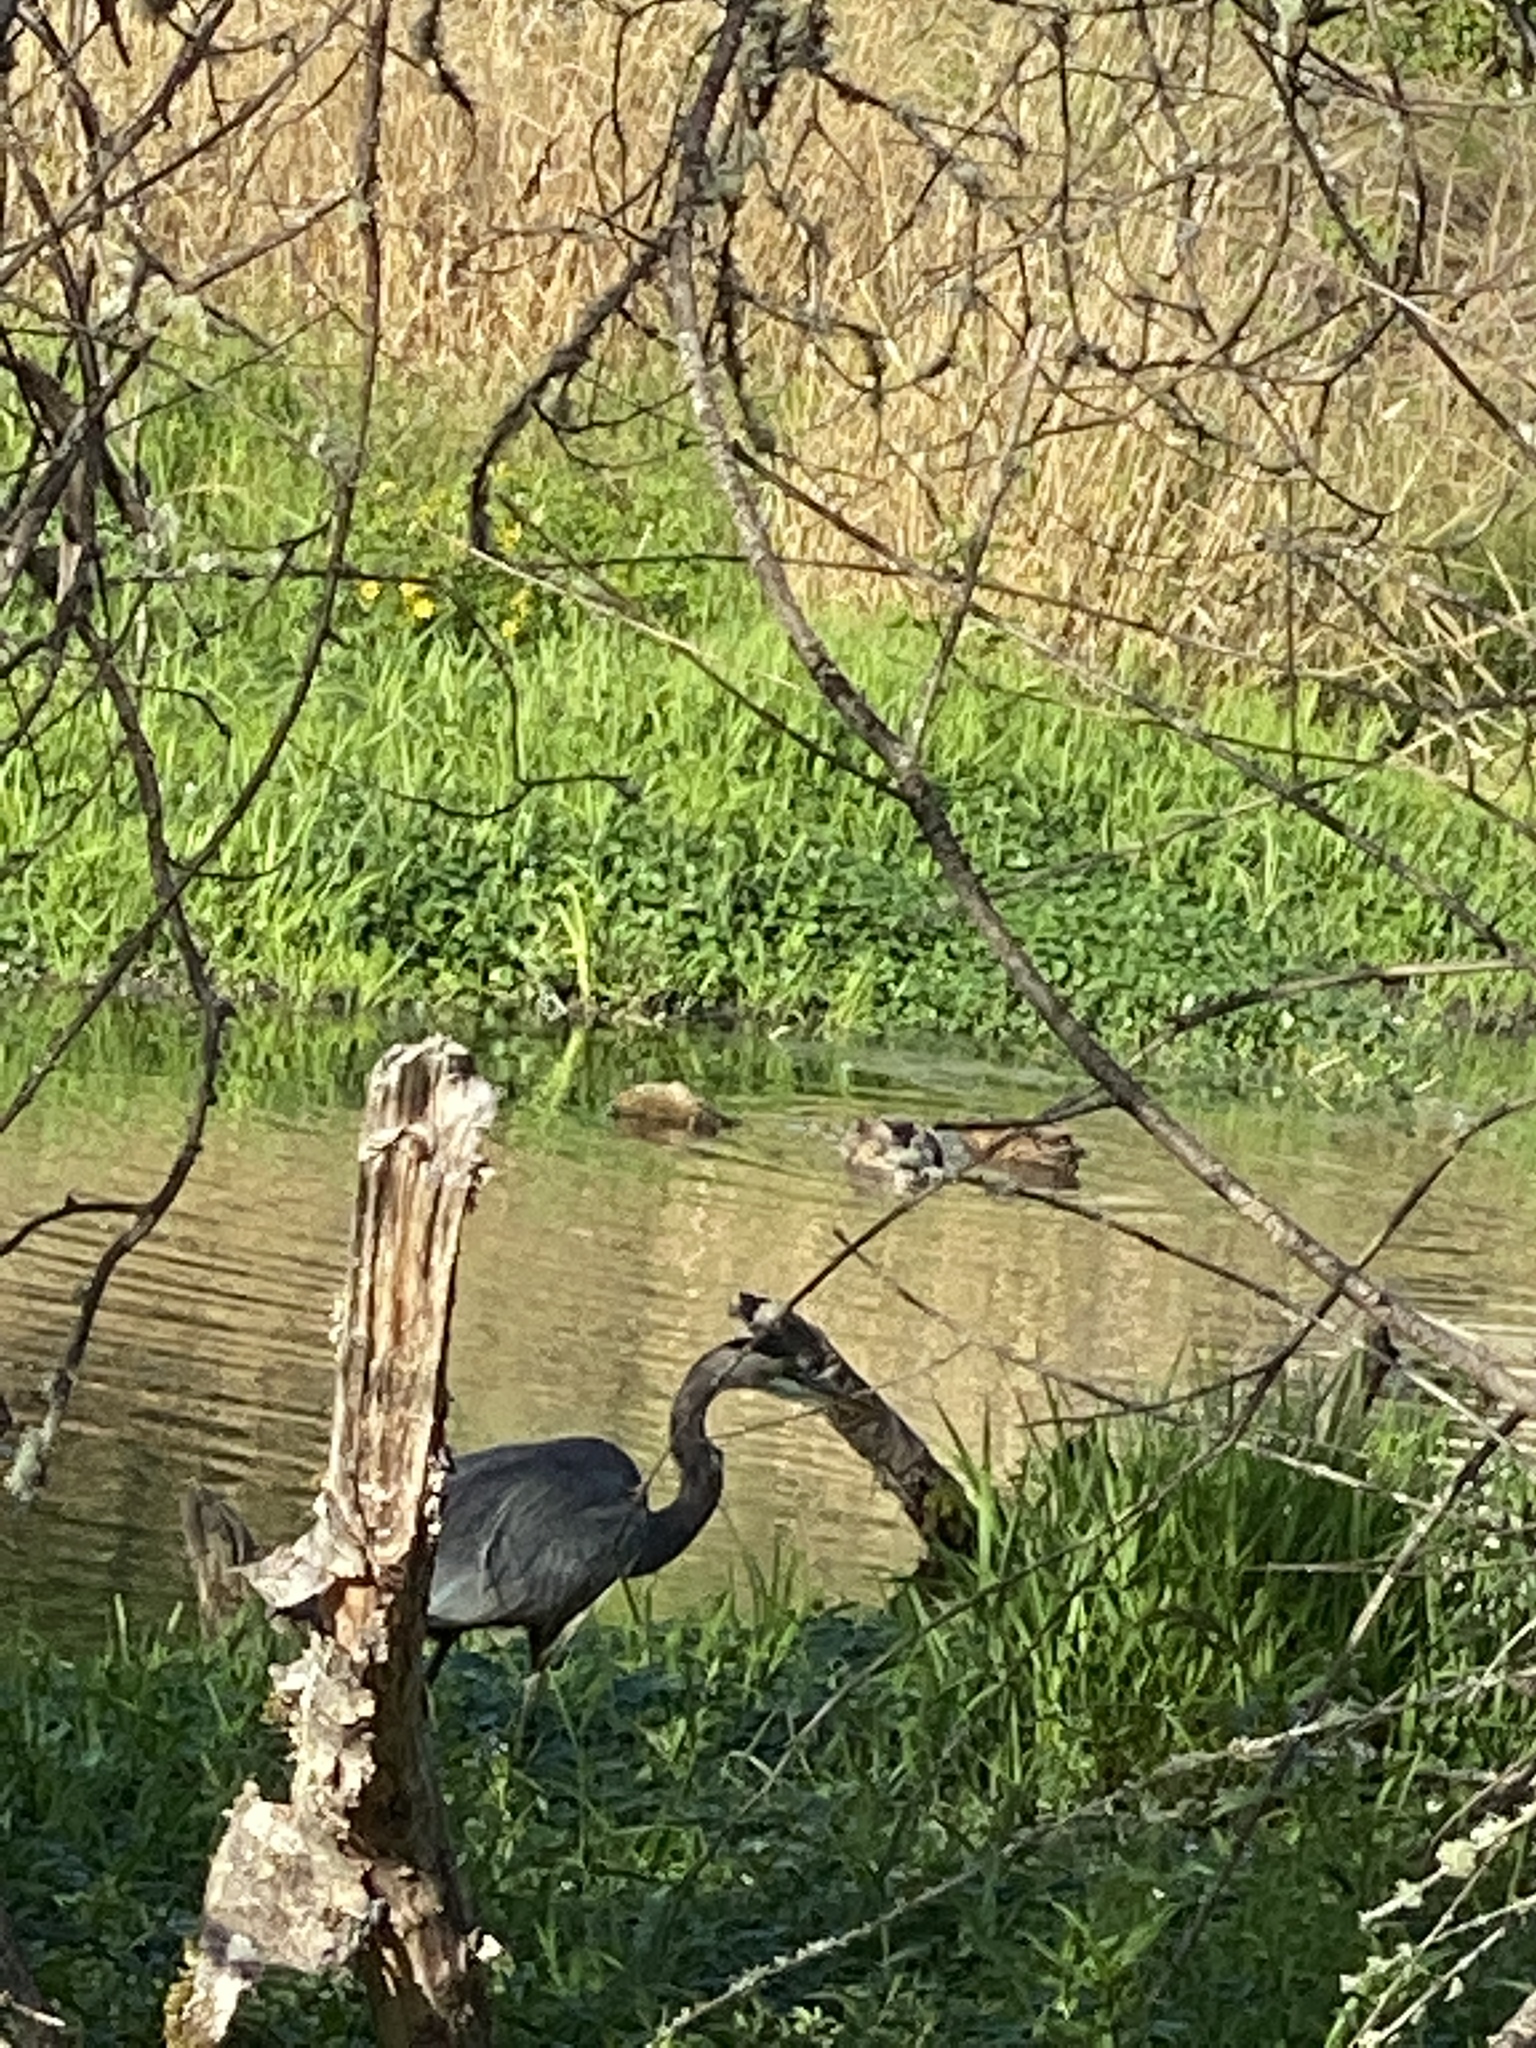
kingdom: Animalia
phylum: Chordata
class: Aves
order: Anseriformes
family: Anatidae
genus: Anas
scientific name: Anas platyrhynchos
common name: Mallard
